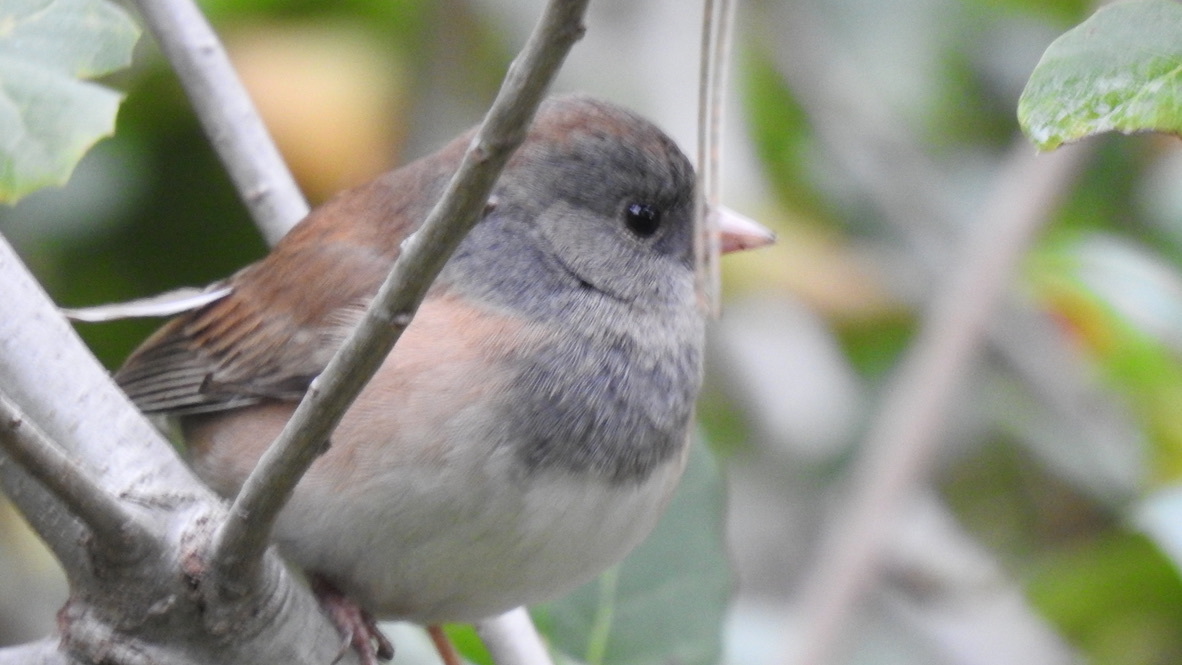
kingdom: Animalia
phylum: Chordata
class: Aves
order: Passeriformes
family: Passerellidae
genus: Junco
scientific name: Junco hyemalis
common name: Dark-eyed junco
